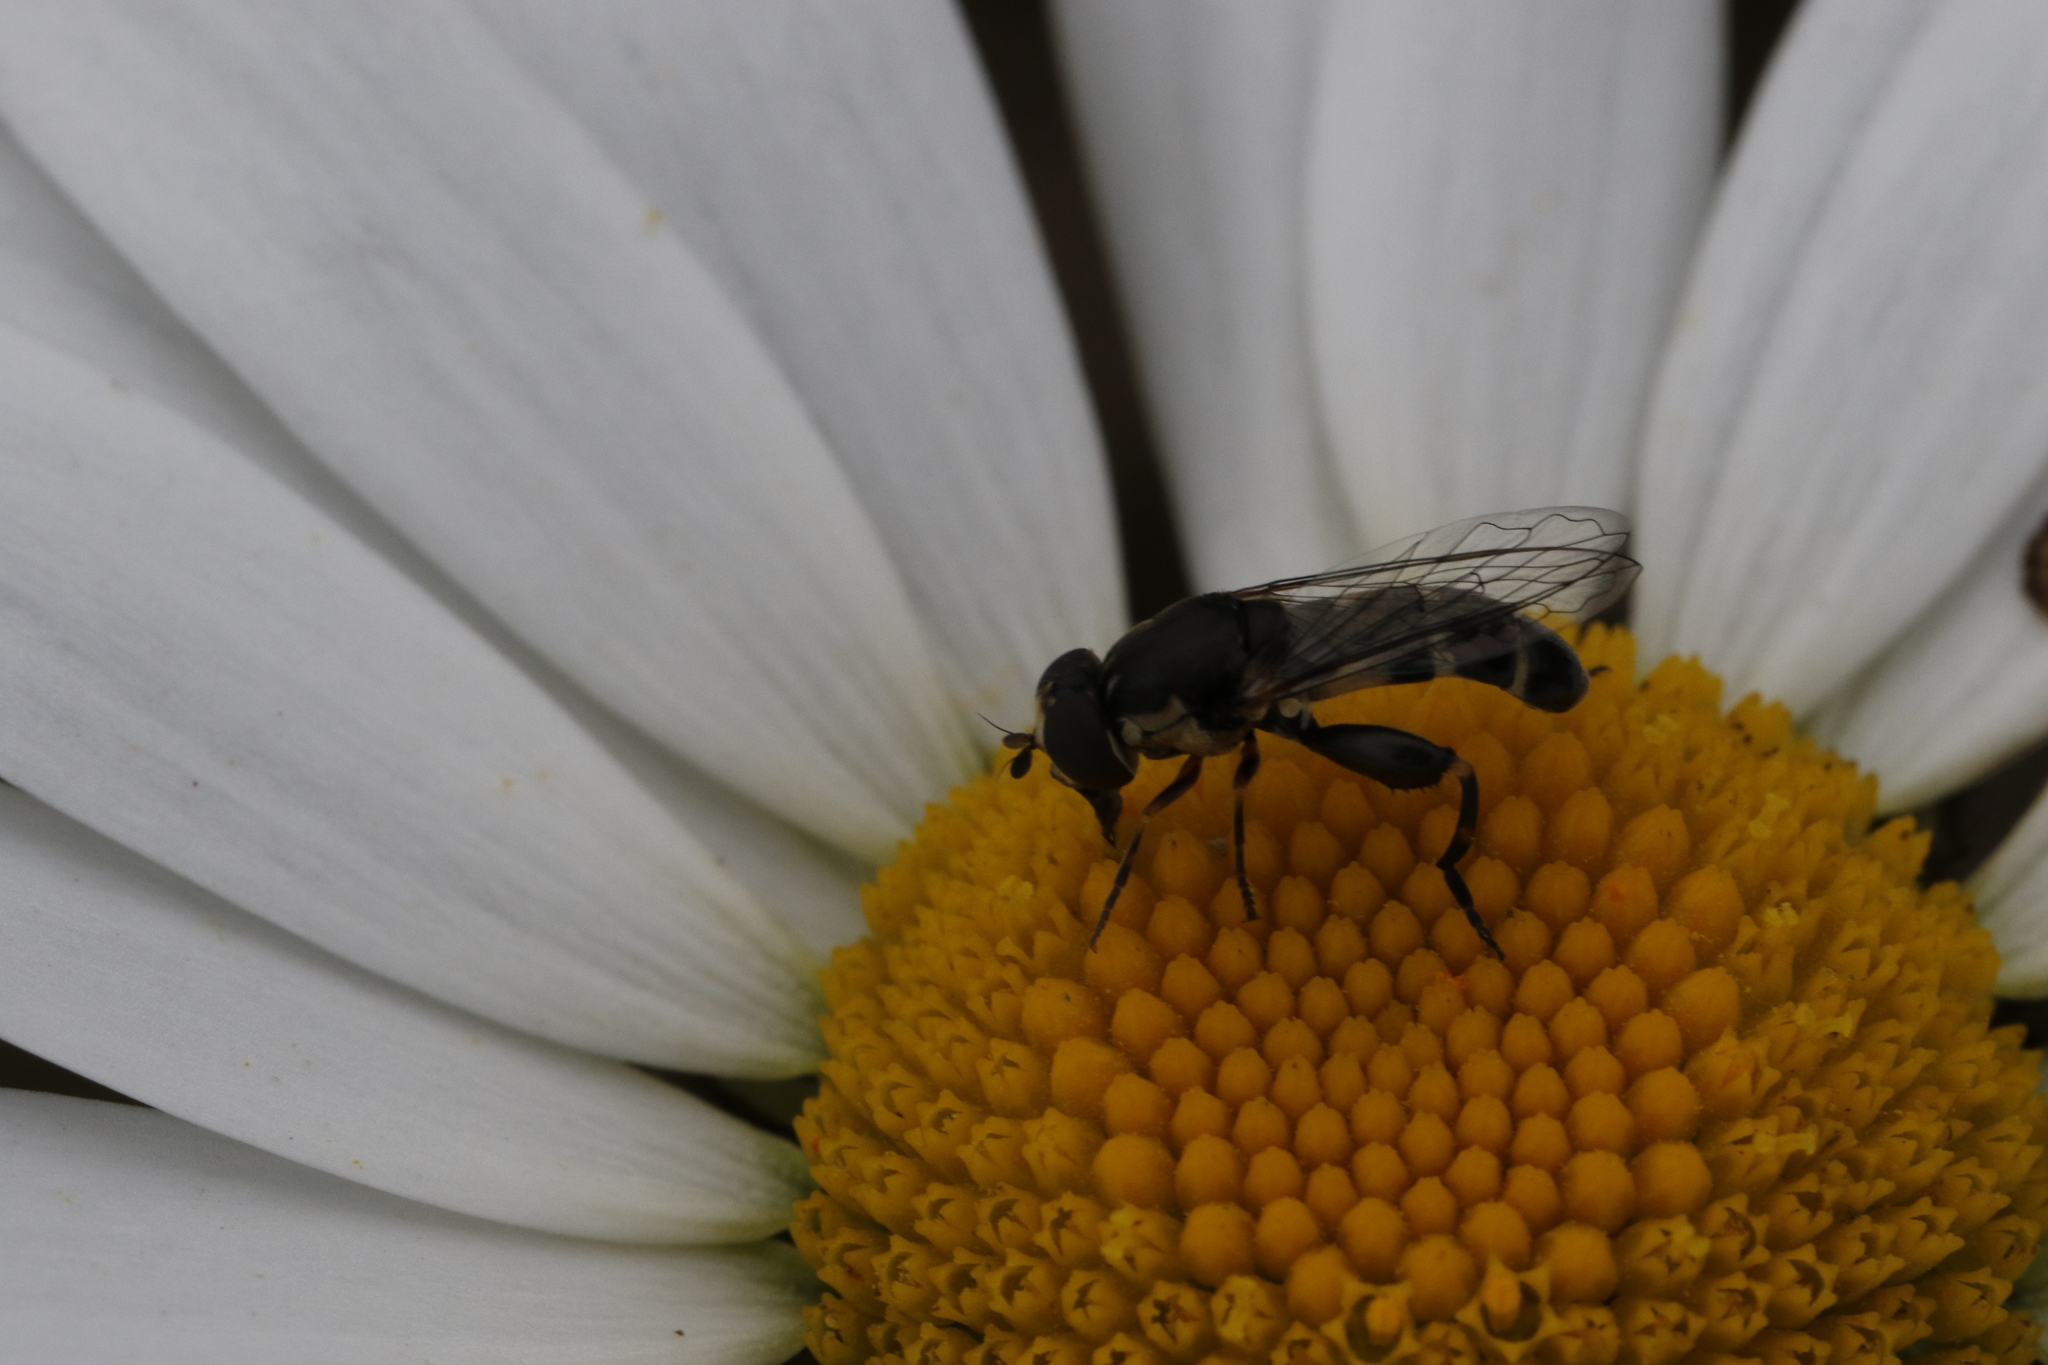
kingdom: Animalia
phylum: Arthropoda
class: Insecta
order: Diptera
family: Syrphidae
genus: Syritta
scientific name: Syritta pipiens
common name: Hover fly
